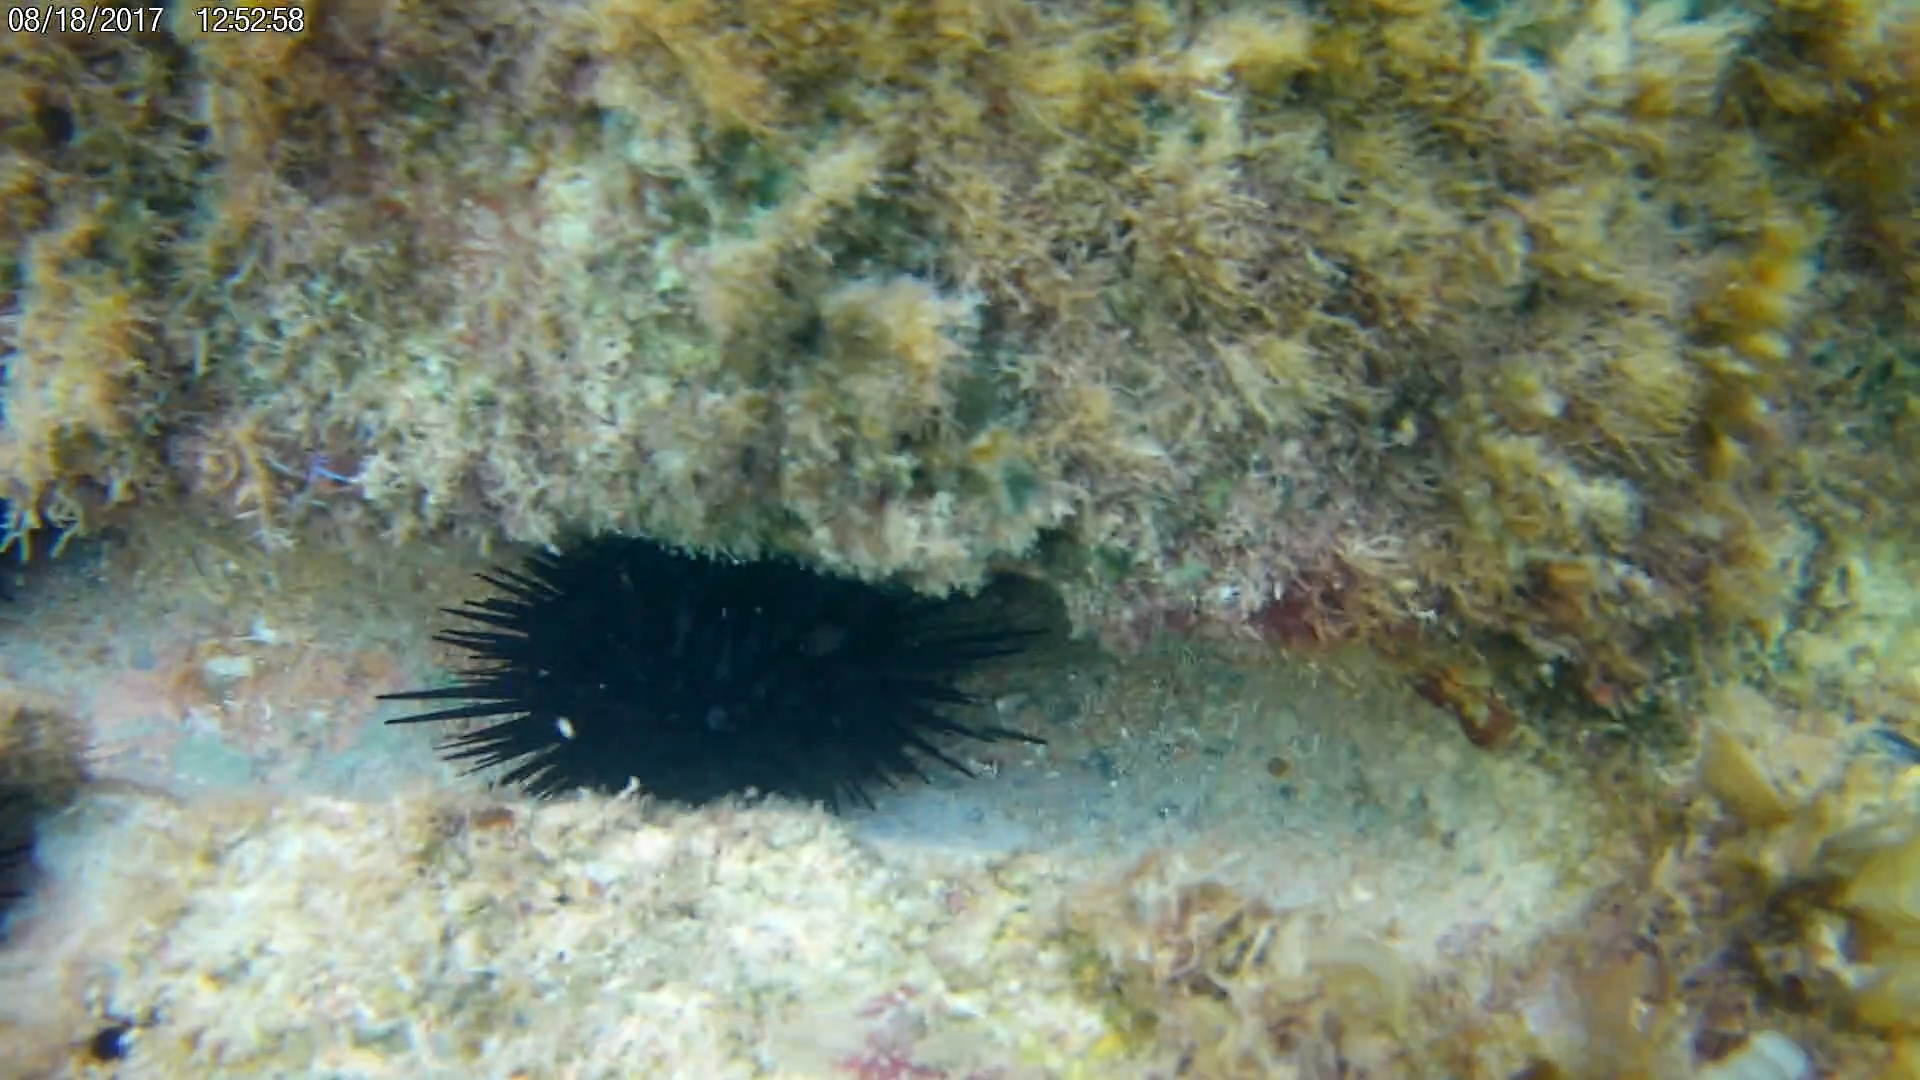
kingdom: Animalia
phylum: Echinodermata
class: Echinoidea
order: Camarodonta
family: Echinometridae
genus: Echinometra
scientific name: Echinometra lucunter
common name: Rock urchin
